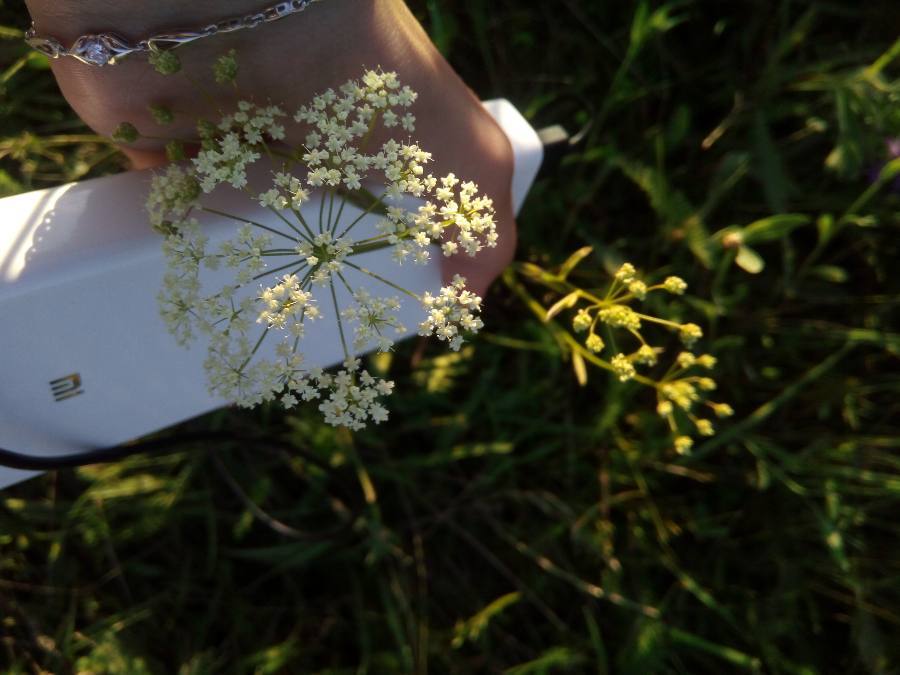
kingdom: Plantae
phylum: Tracheophyta
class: Magnoliopsida
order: Apiales
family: Apiaceae
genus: Pimpinella
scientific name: Pimpinella saxifraga
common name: Burnet-saxifrage
